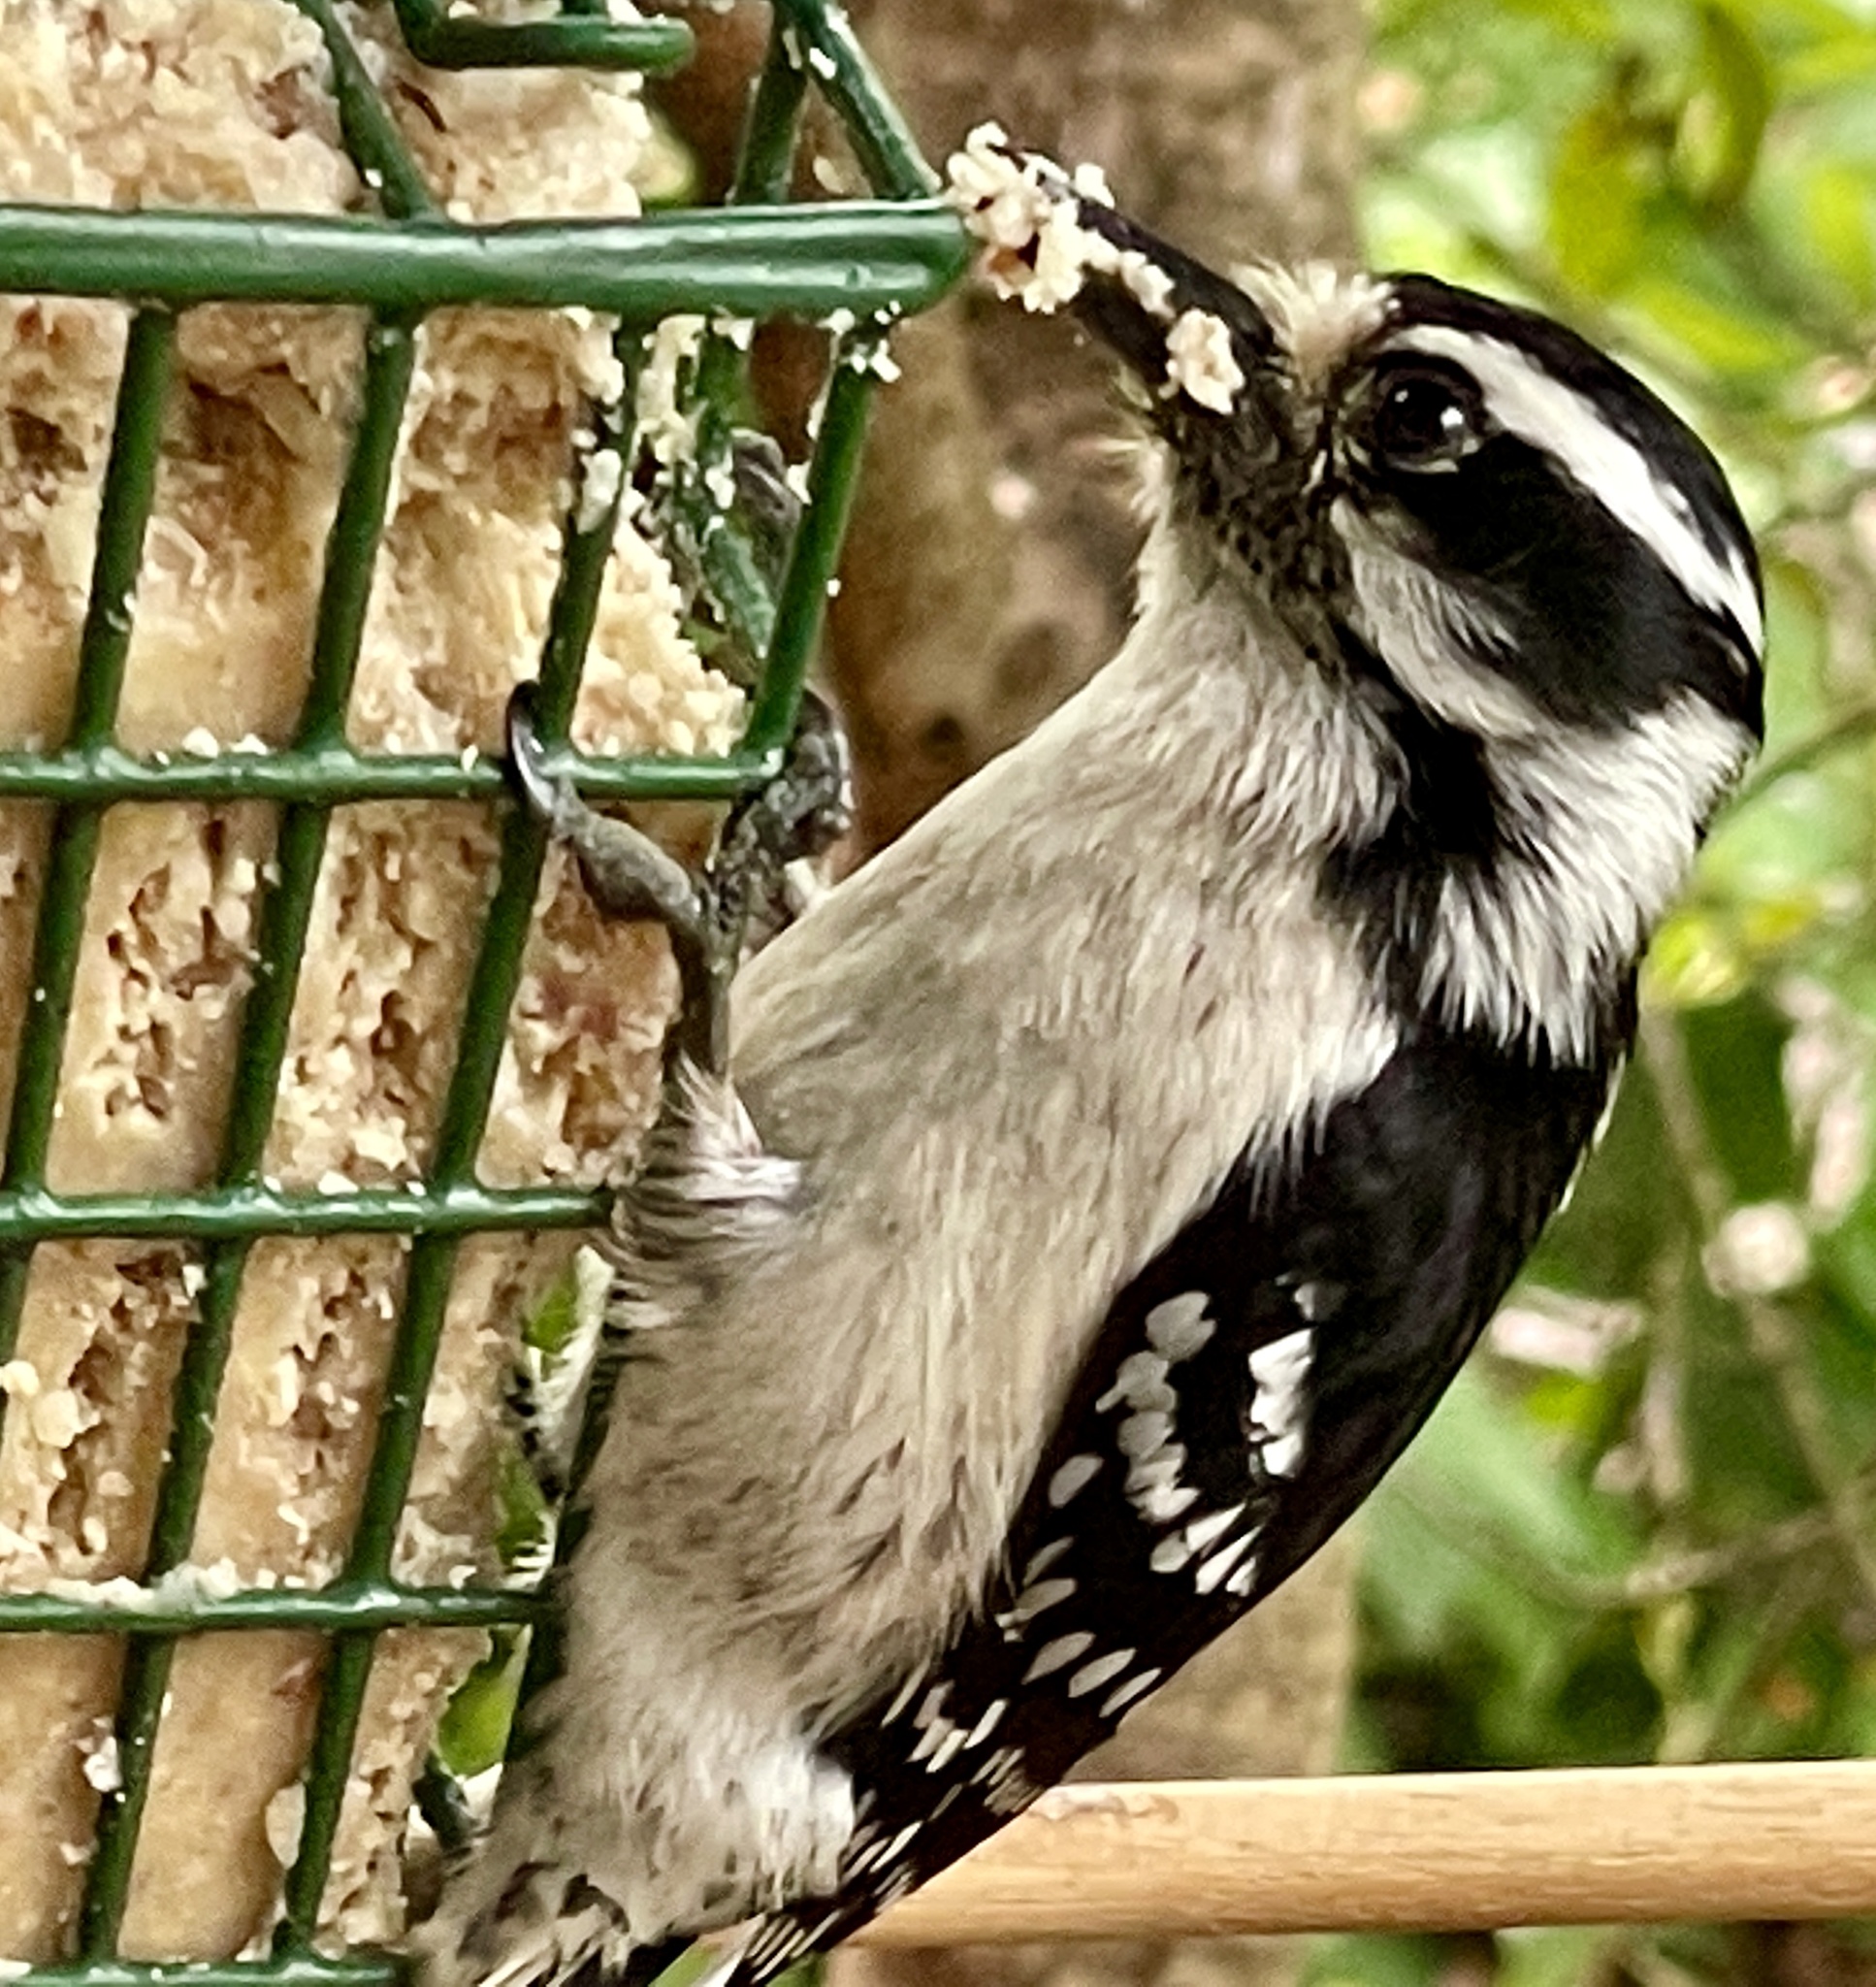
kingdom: Animalia
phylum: Chordata
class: Aves
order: Piciformes
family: Picidae
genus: Dryobates
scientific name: Dryobates pubescens
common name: Downy woodpecker
